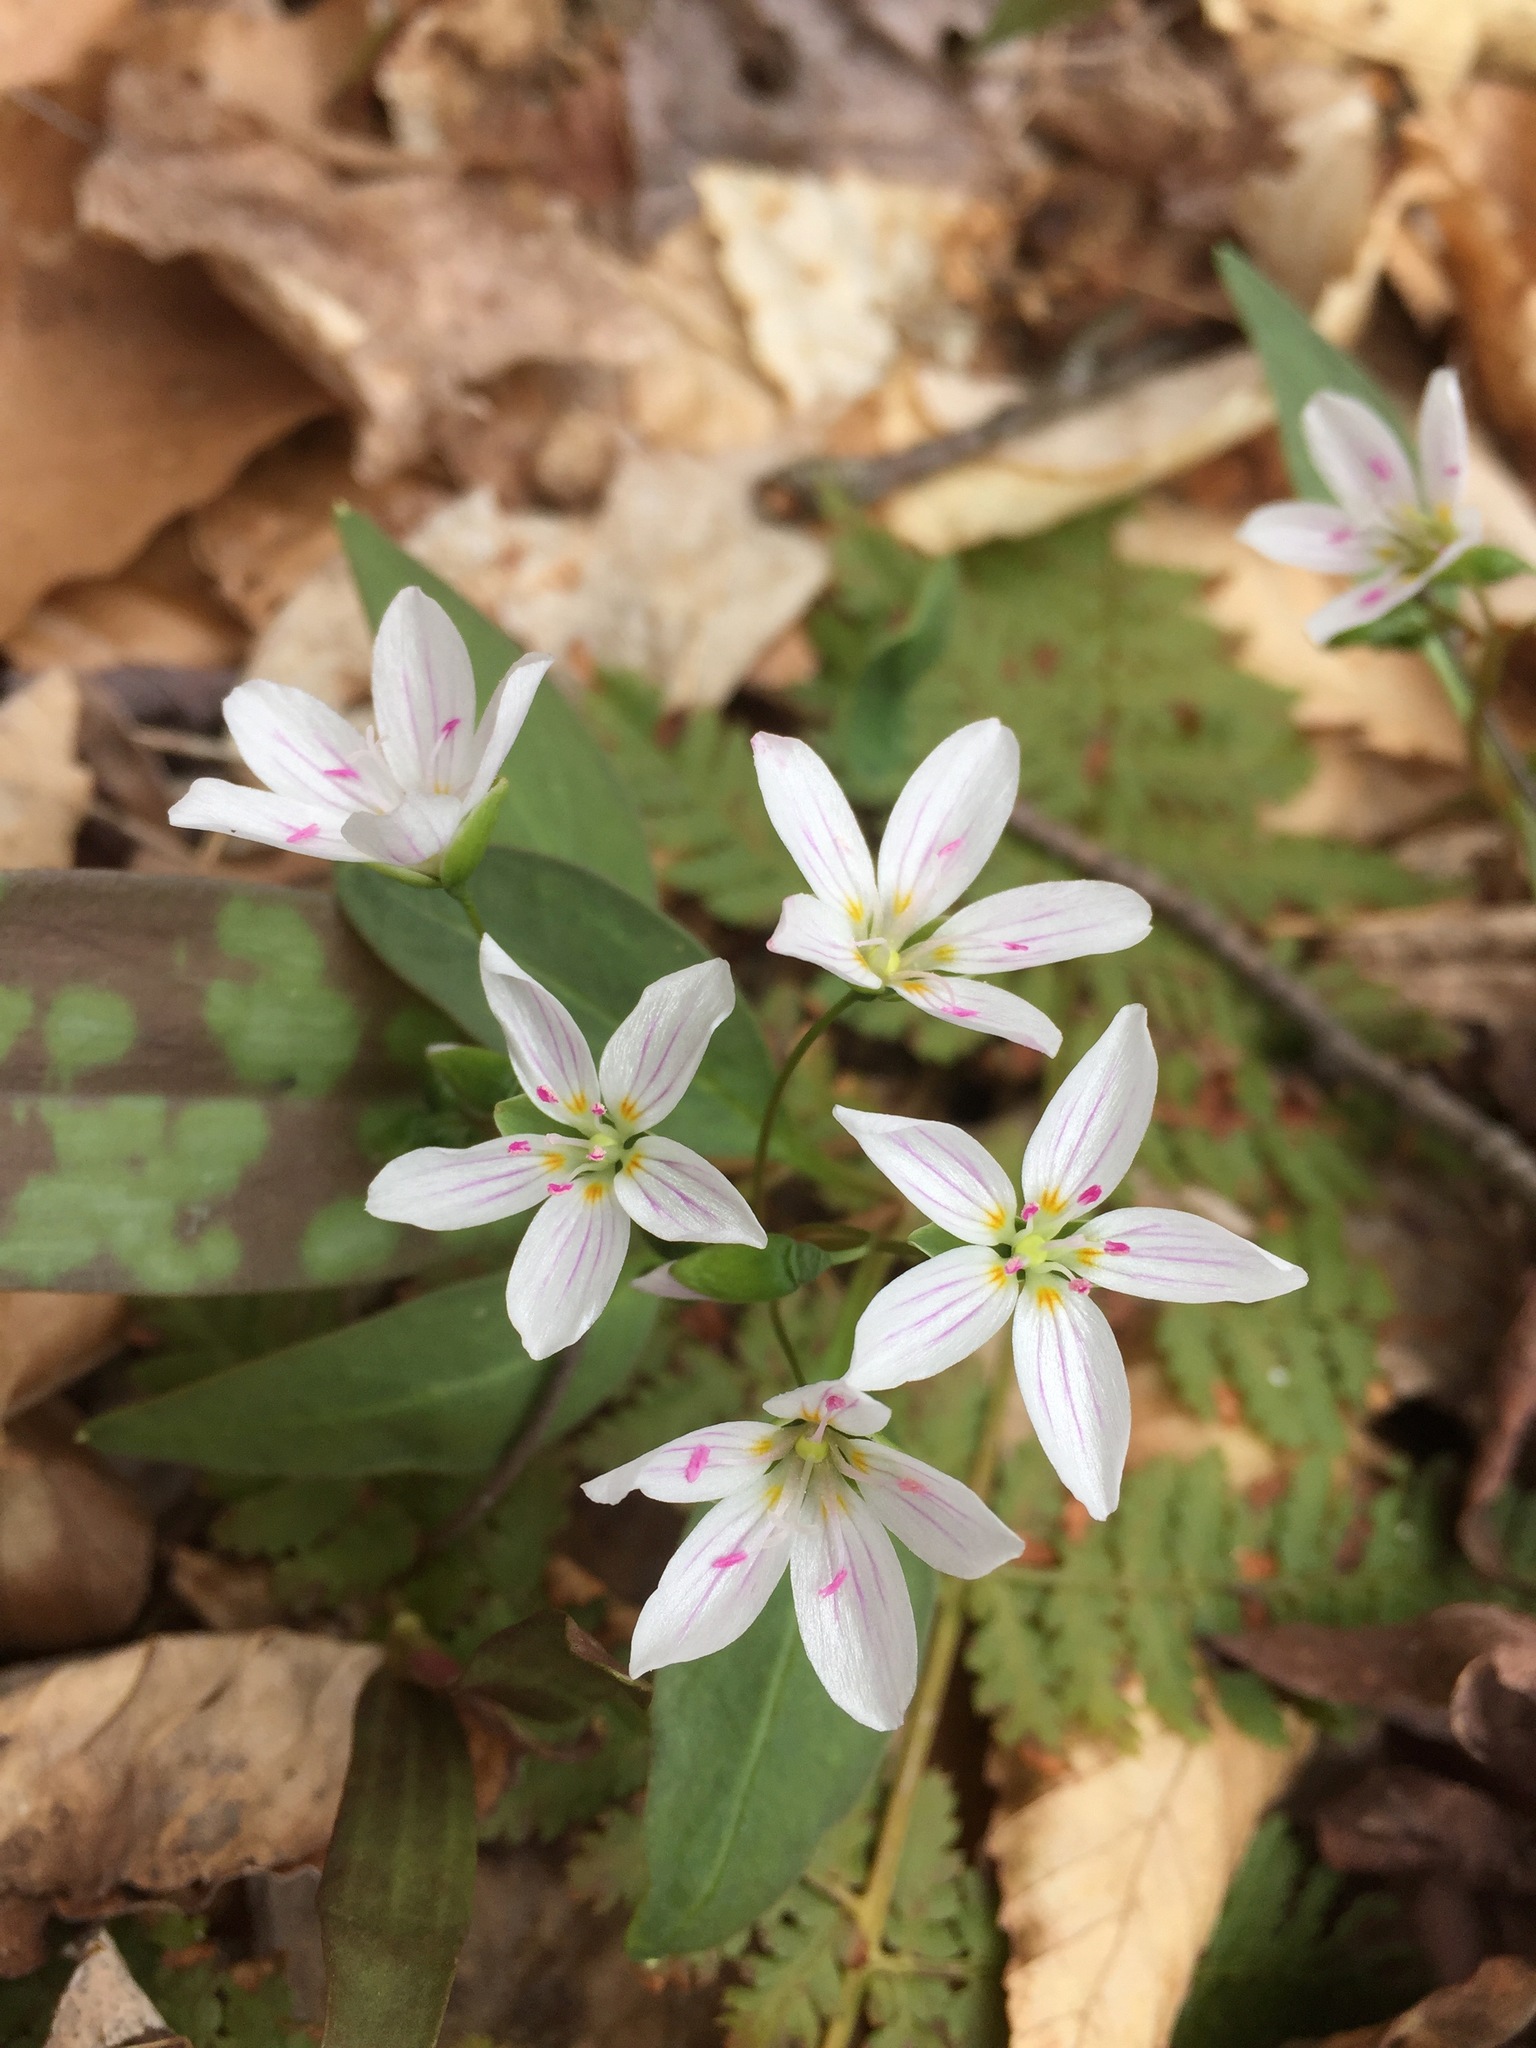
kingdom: Plantae
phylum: Tracheophyta
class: Magnoliopsida
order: Caryophyllales
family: Montiaceae
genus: Claytonia
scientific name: Claytonia caroliniana
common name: Carolina spring beauty
